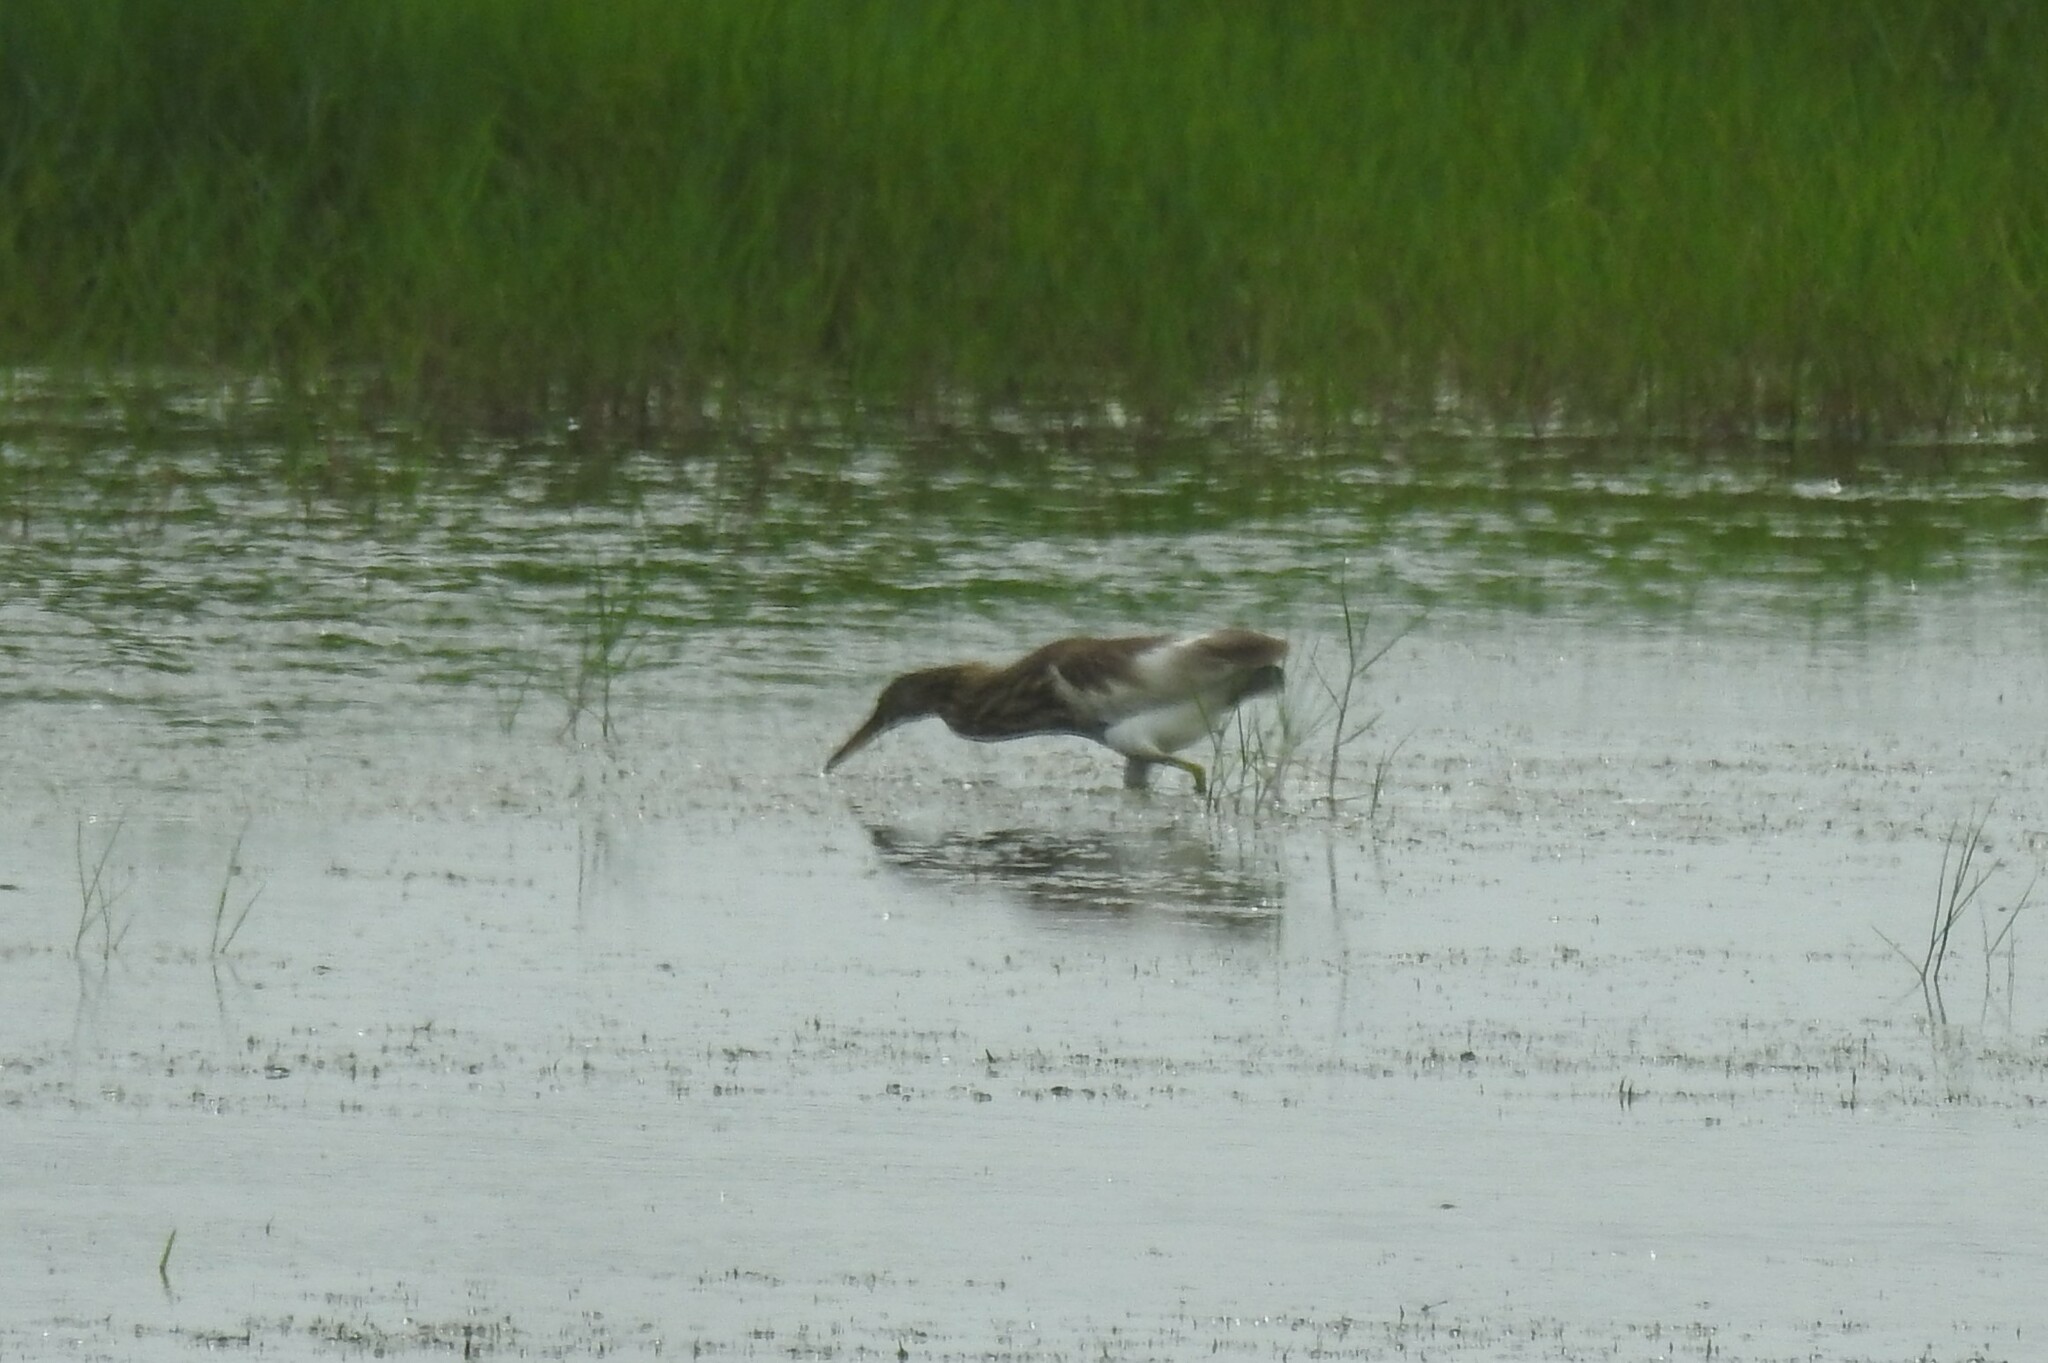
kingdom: Animalia
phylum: Chordata
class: Aves
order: Pelecaniformes
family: Ardeidae
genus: Ardeola
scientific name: Ardeola grayii
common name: Indian pond heron
